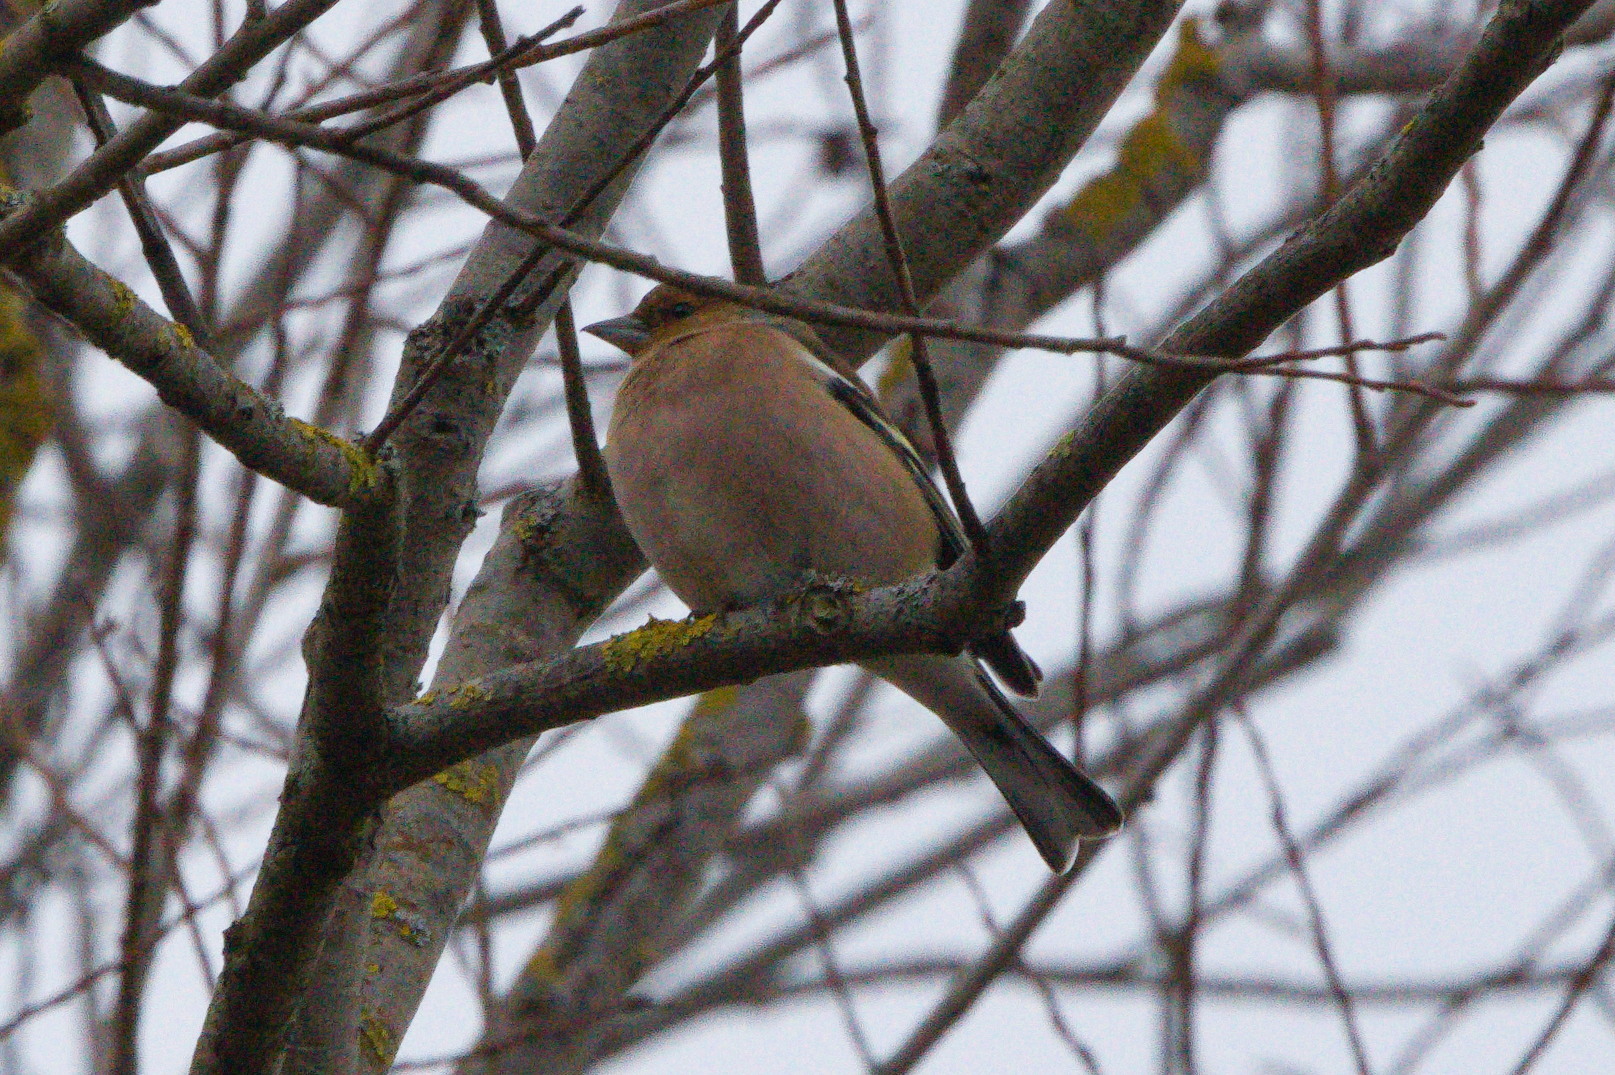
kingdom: Animalia
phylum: Chordata
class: Aves
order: Passeriformes
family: Fringillidae
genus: Fringilla
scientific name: Fringilla coelebs
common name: Common chaffinch
